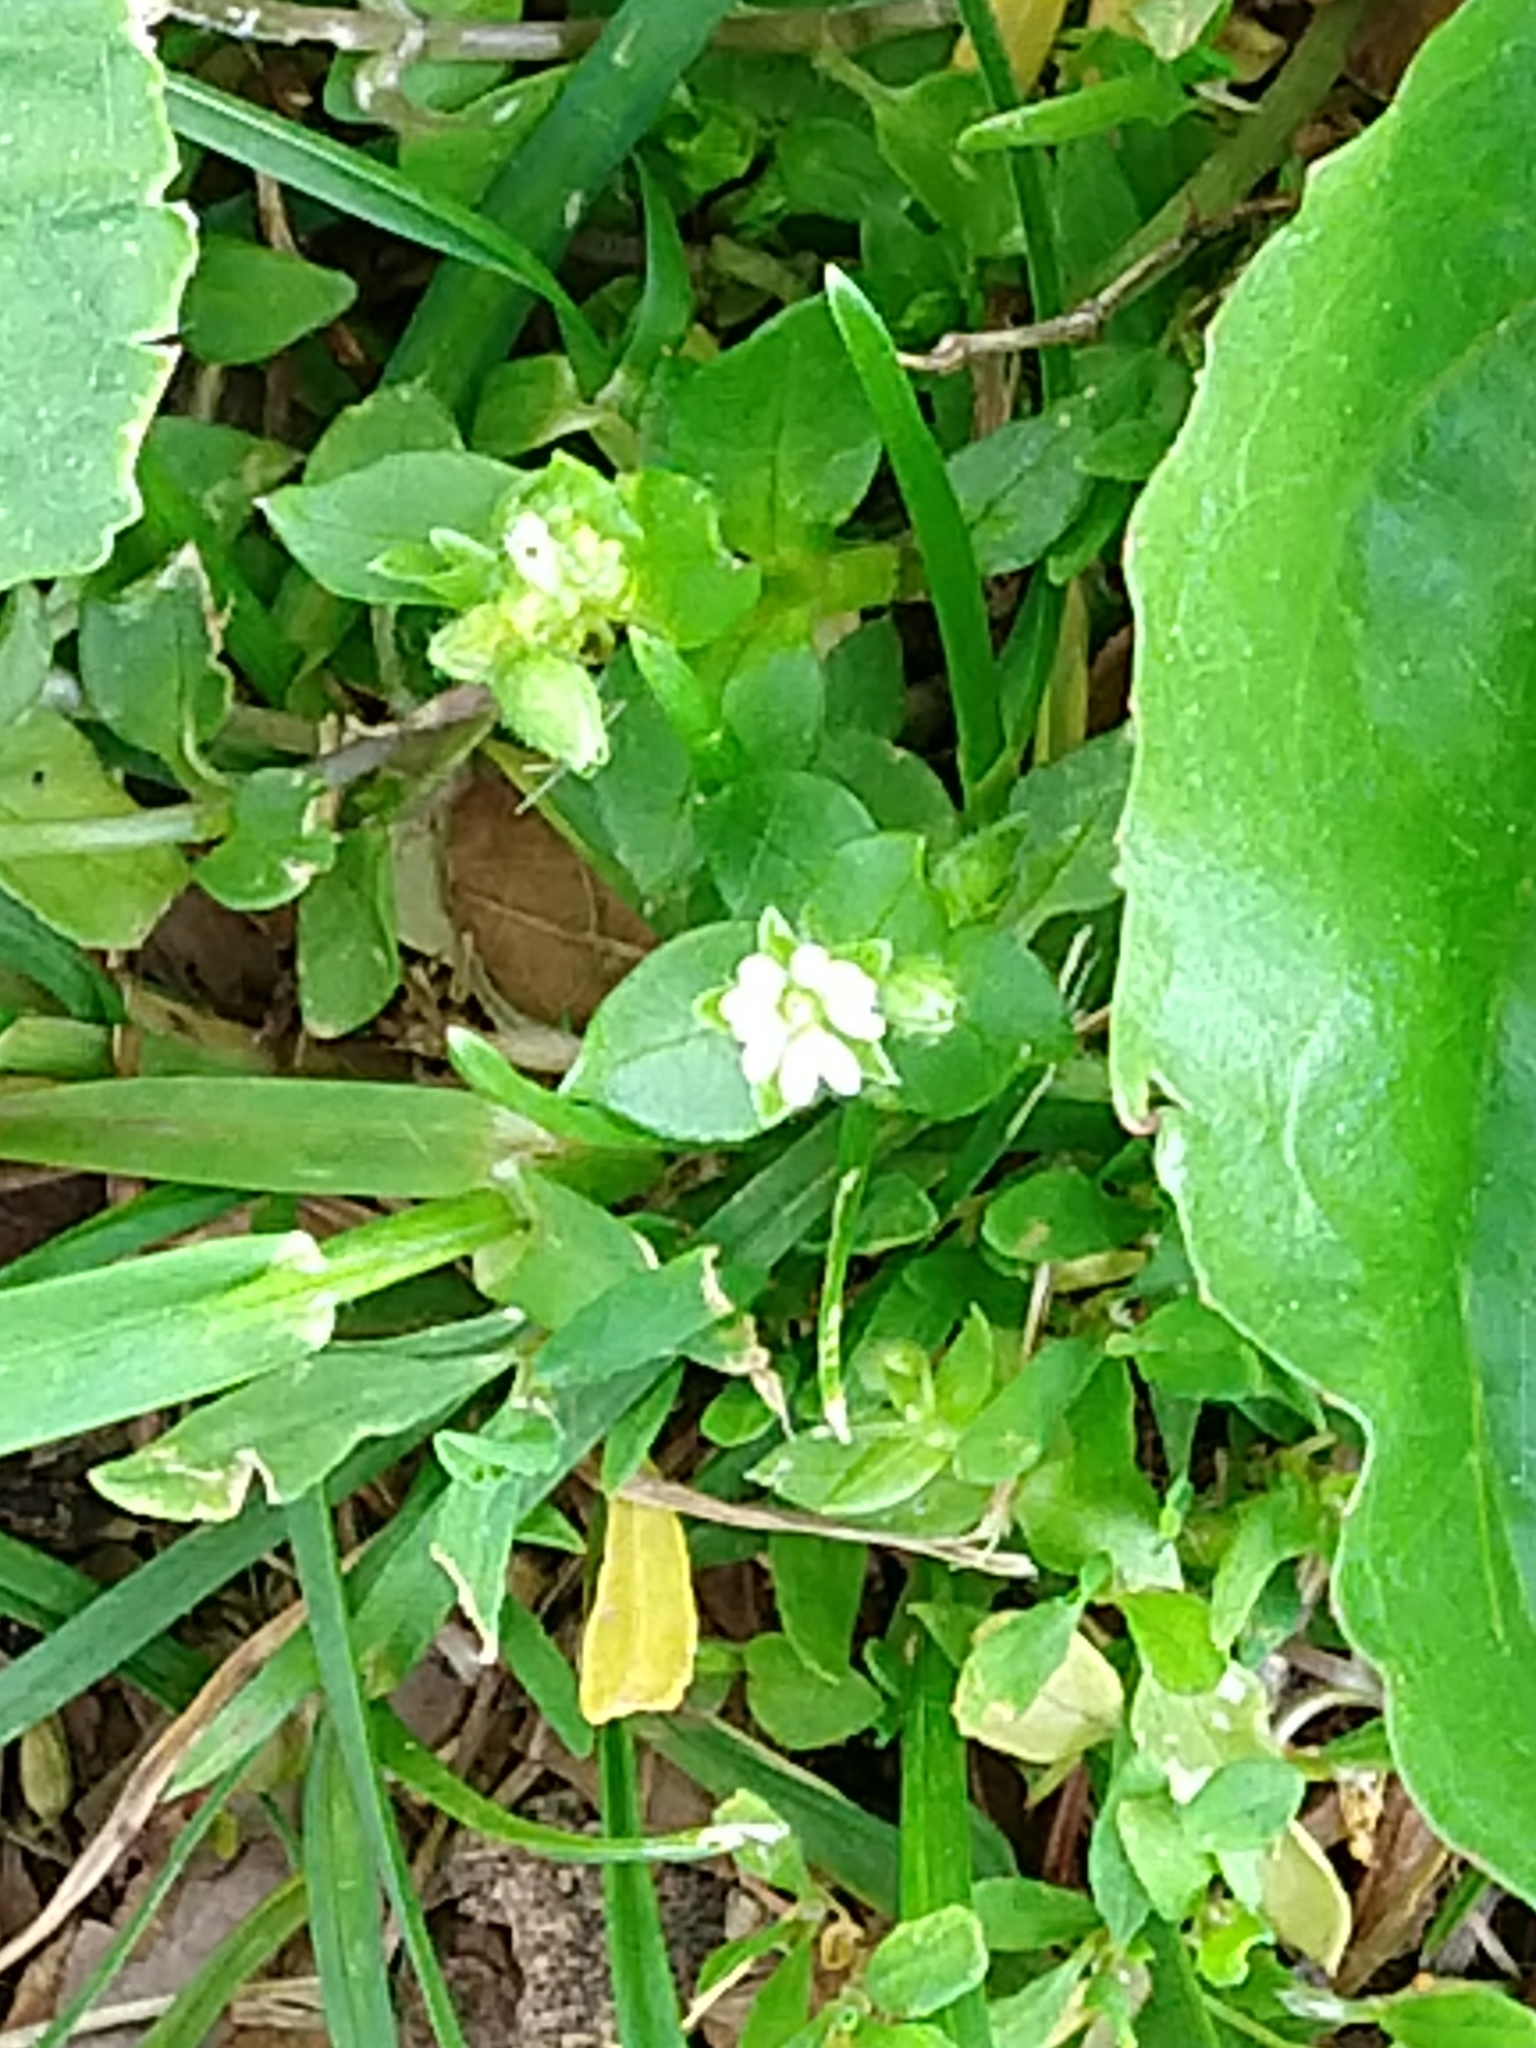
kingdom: Plantae
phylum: Tracheophyta
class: Magnoliopsida
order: Caryophyllales
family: Caryophyllaceae
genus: Stellaria
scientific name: Stellaria media
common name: Common chickweed
